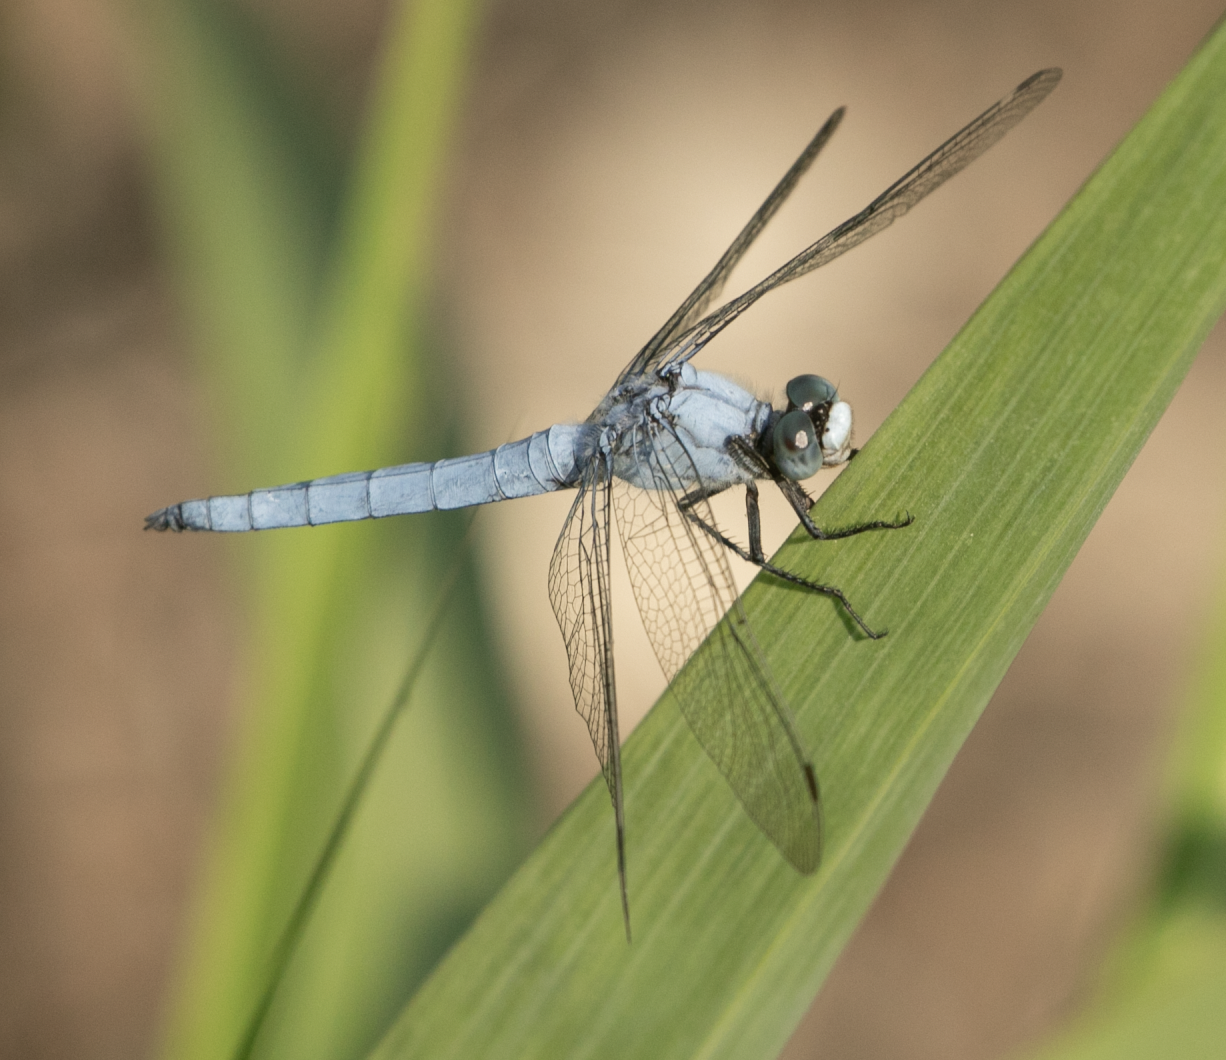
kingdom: Animalia
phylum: Arthropoda
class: Insecta
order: Odonata
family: Libellulidae
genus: Orthetrum
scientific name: Orthetrum brunneum
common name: Southern skimmer
